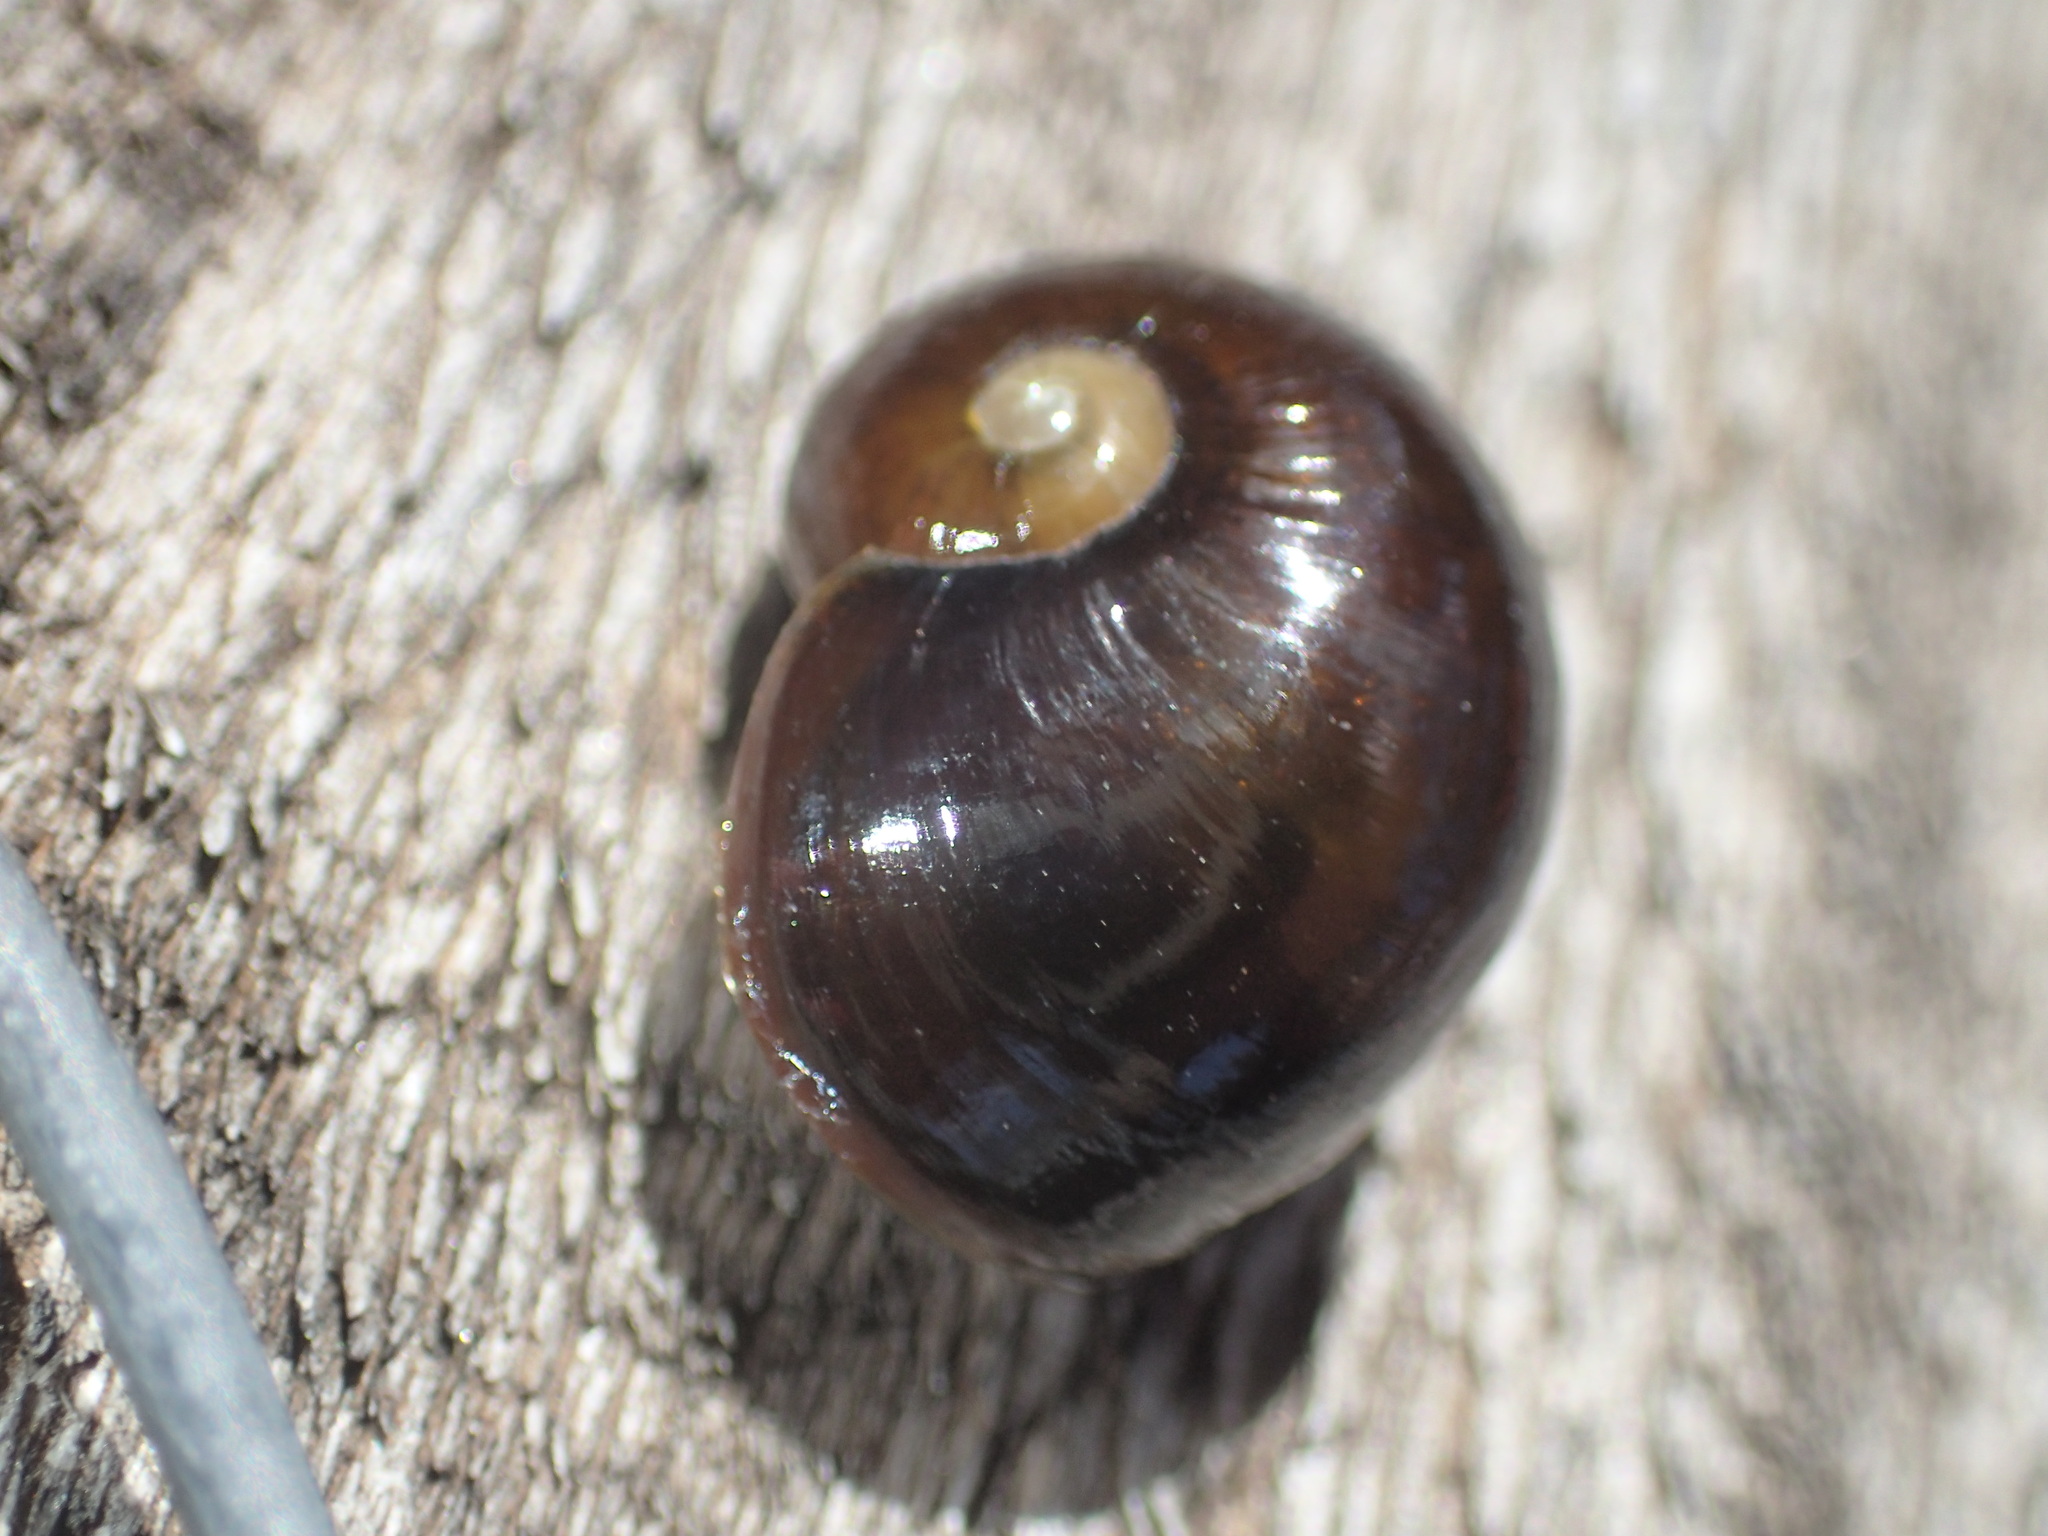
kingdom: Animalia
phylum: Mollusca
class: Gastropoda
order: Stylommatophora
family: Rhytididae
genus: Victaphanta
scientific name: Victaphanta milligani
